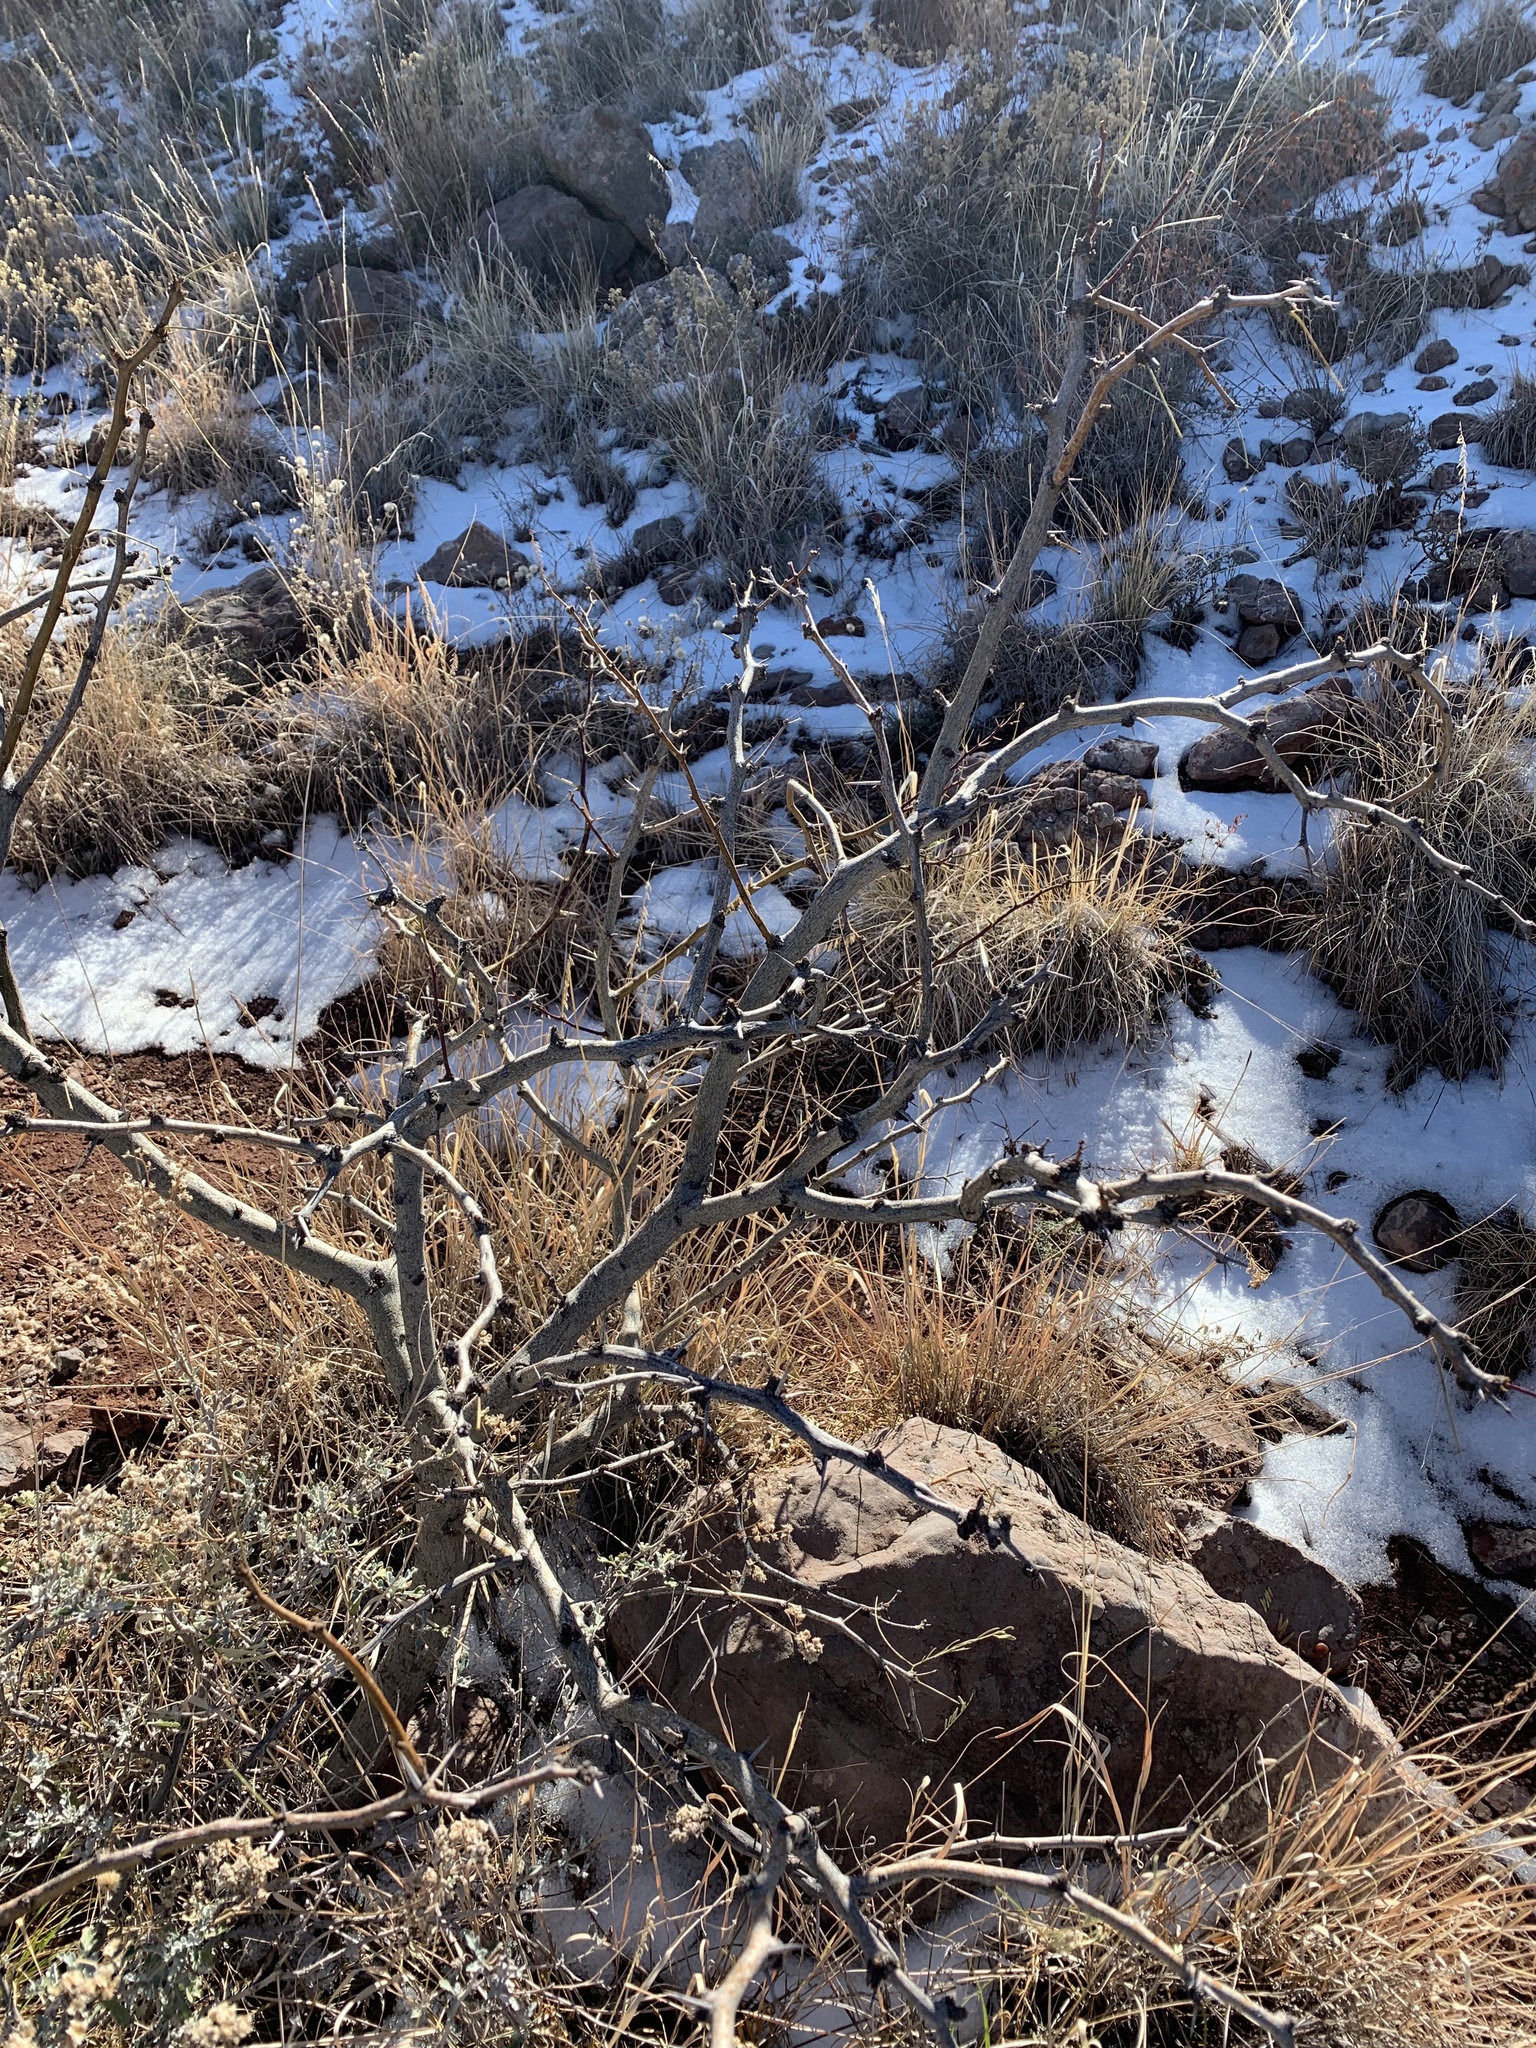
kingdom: Plantae
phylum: Tracheophyta
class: Magnoliopsida
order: Fabales
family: Fabaceae
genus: Prosopis
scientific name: Prosopis glandulosa
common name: Honey mesquite
